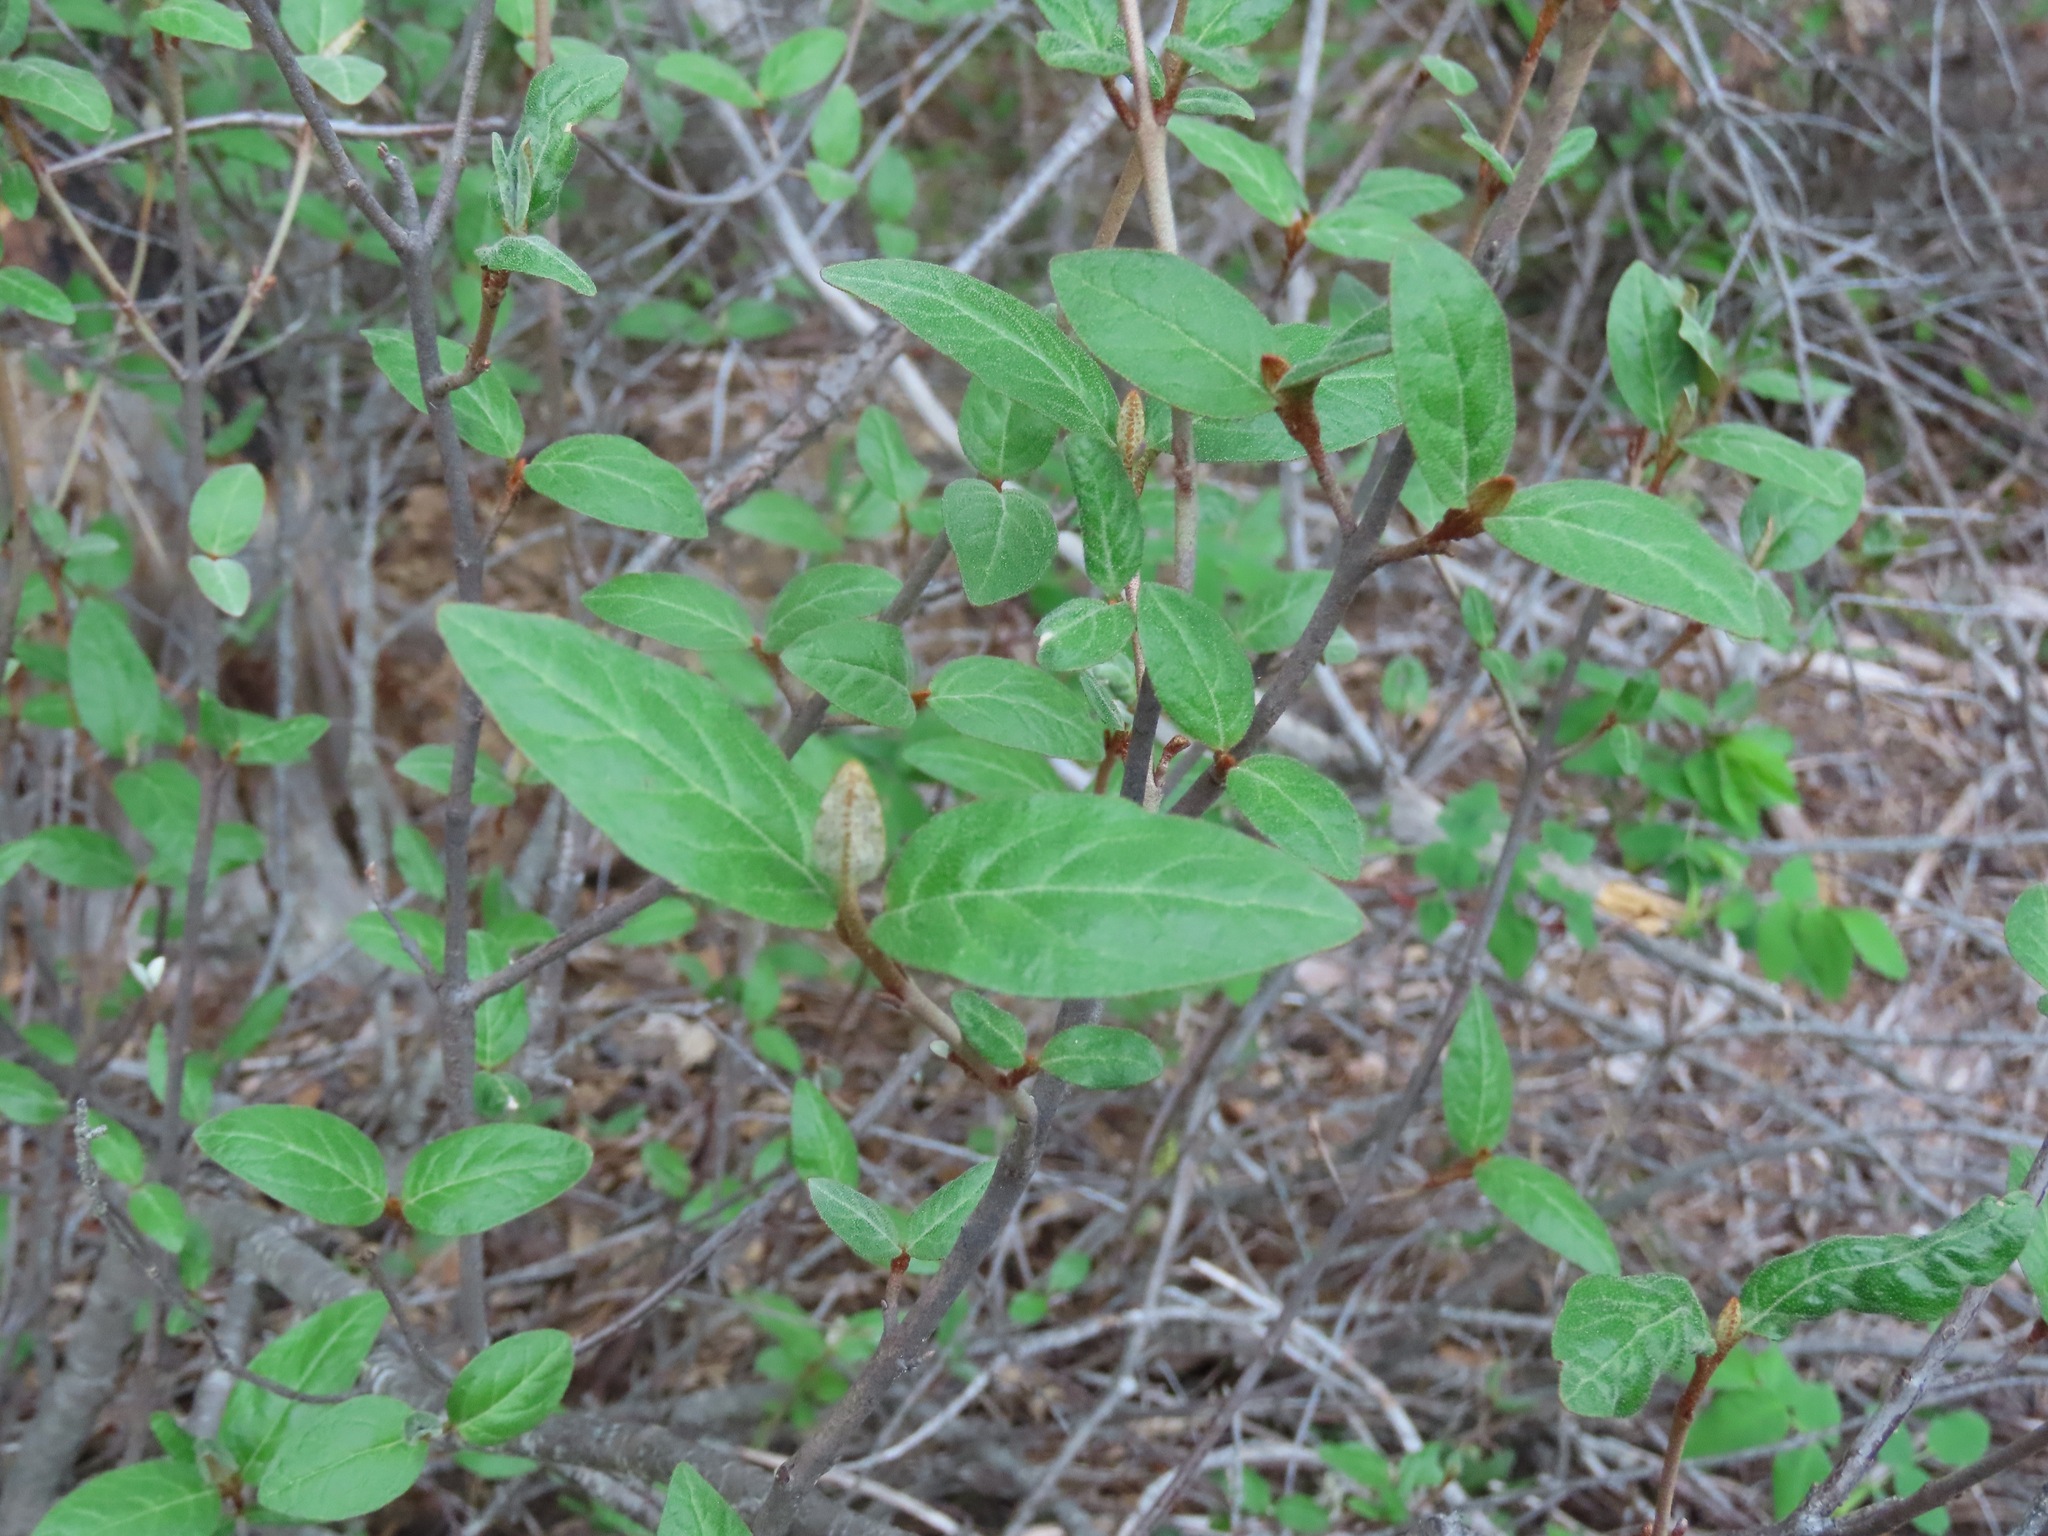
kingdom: Plantae
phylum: Tracheophyta
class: Magnoliopsida
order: Rosales
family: Elaeagnaceae
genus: Shepherdia
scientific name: Shepherdia canadensis
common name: Soapberry
